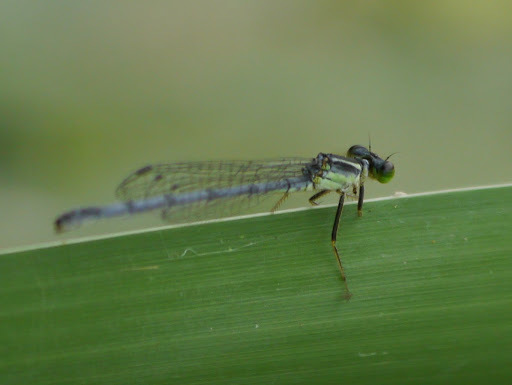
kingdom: Animalia
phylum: Arthropoda
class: Insecta
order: Odonata
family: Coenagrionidae
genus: Ischnura
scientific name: Ischnura verticalis
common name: Eastern forktail
